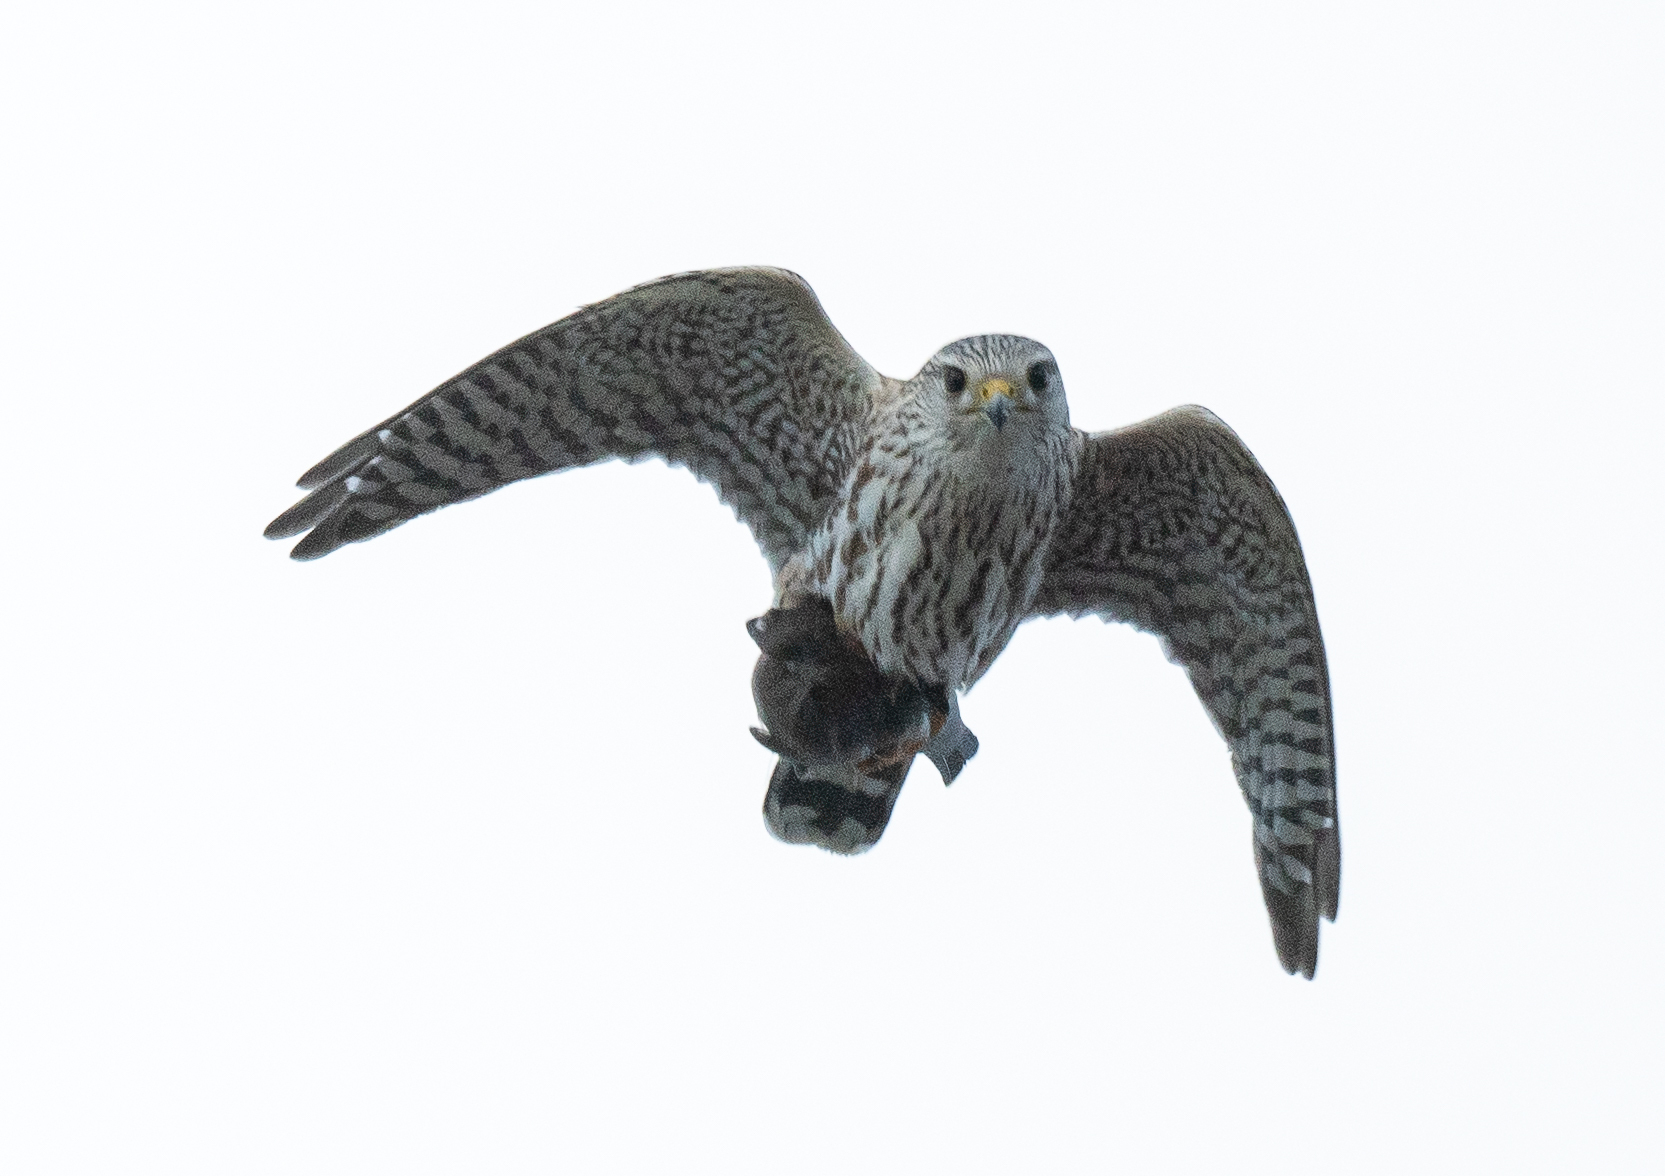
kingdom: Animalia
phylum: Chordata
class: Aves
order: Falconiformes
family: Falconidae
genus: Falco
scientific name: Falco columbarius
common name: Merlin
